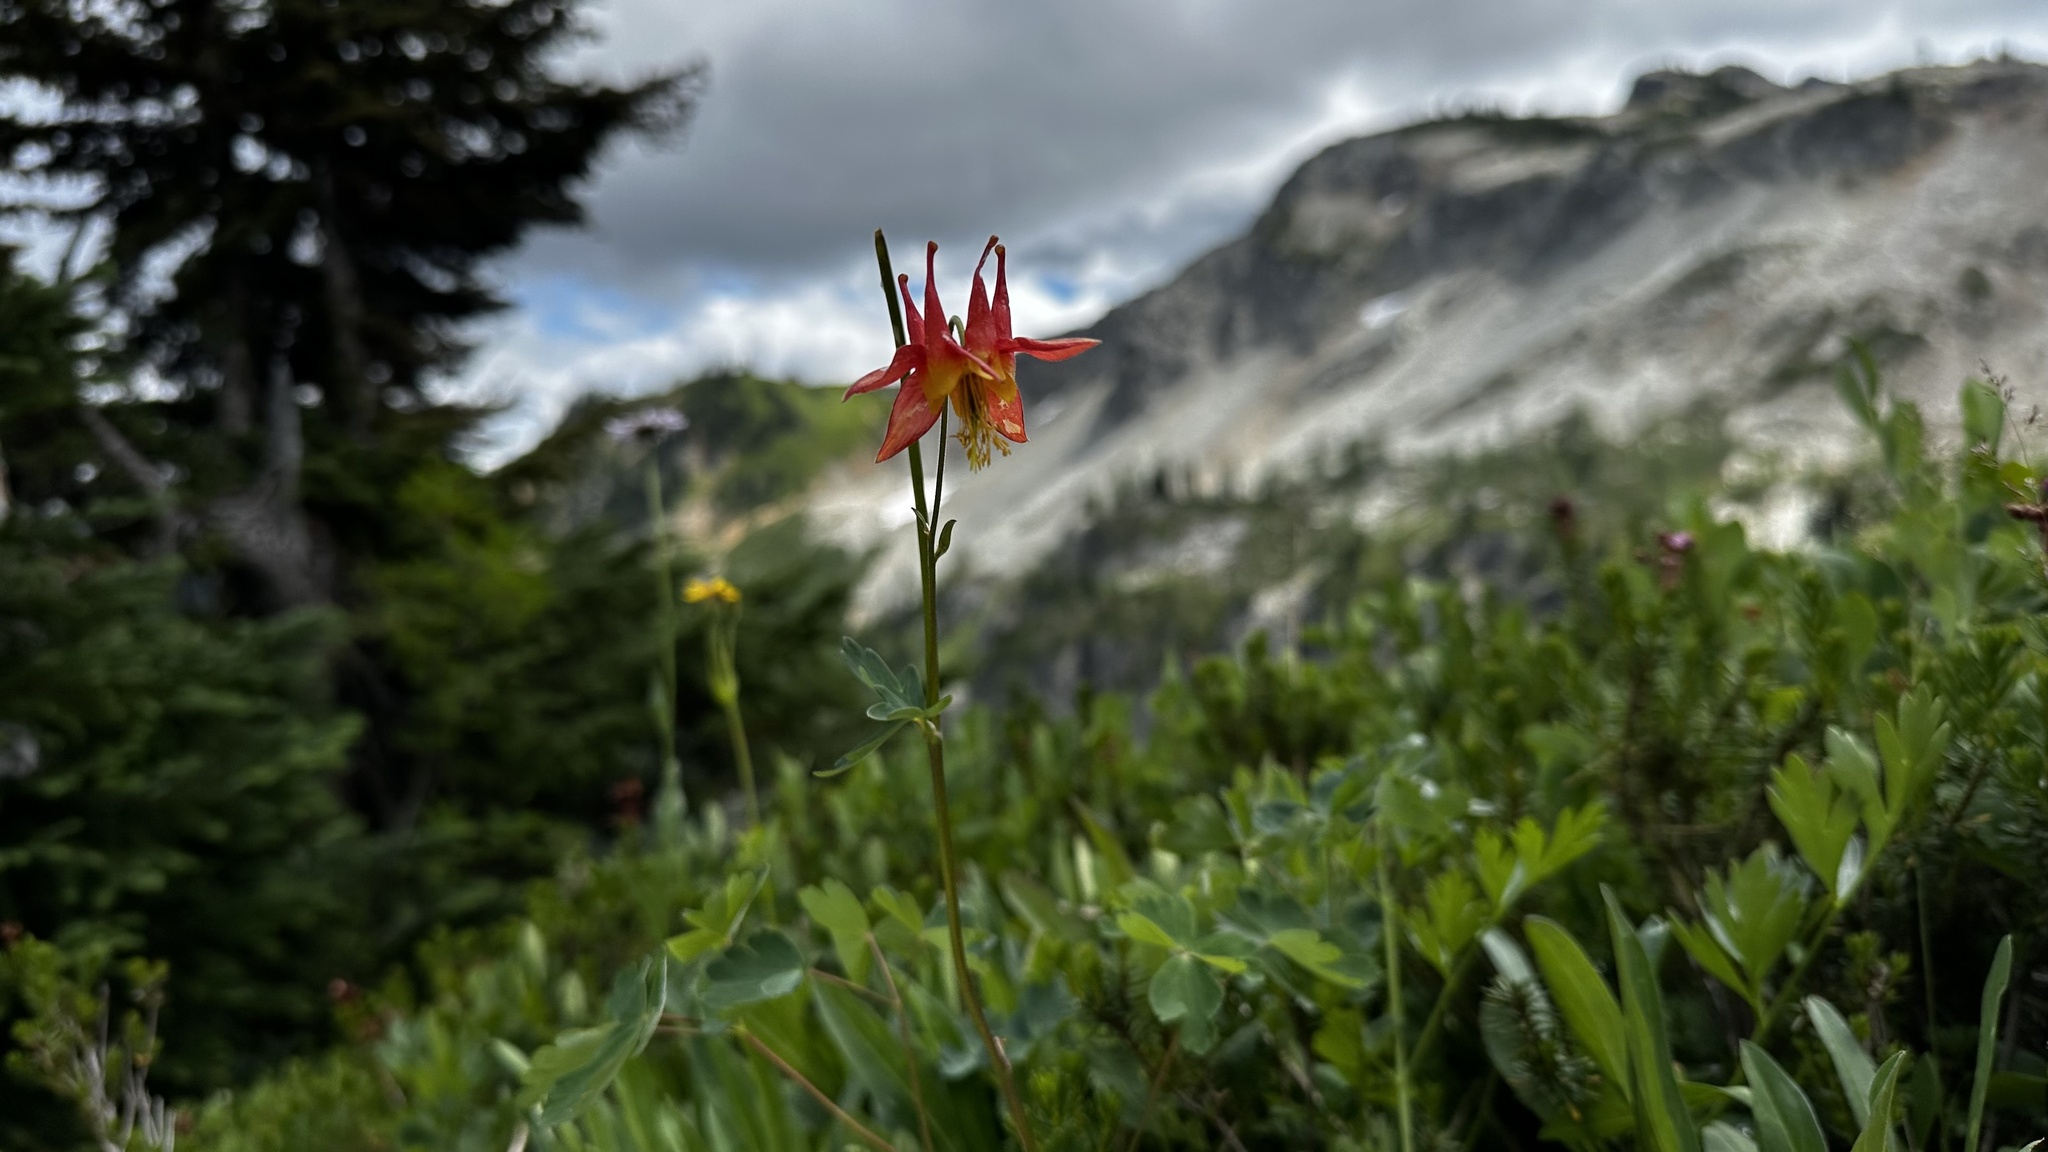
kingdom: Plantae
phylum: Tracheophyta
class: Magnoliopsida
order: Ranunculales
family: Ranunculaceae
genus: Aquilegia
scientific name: Aquilegia formosa
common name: Sitka columbine
